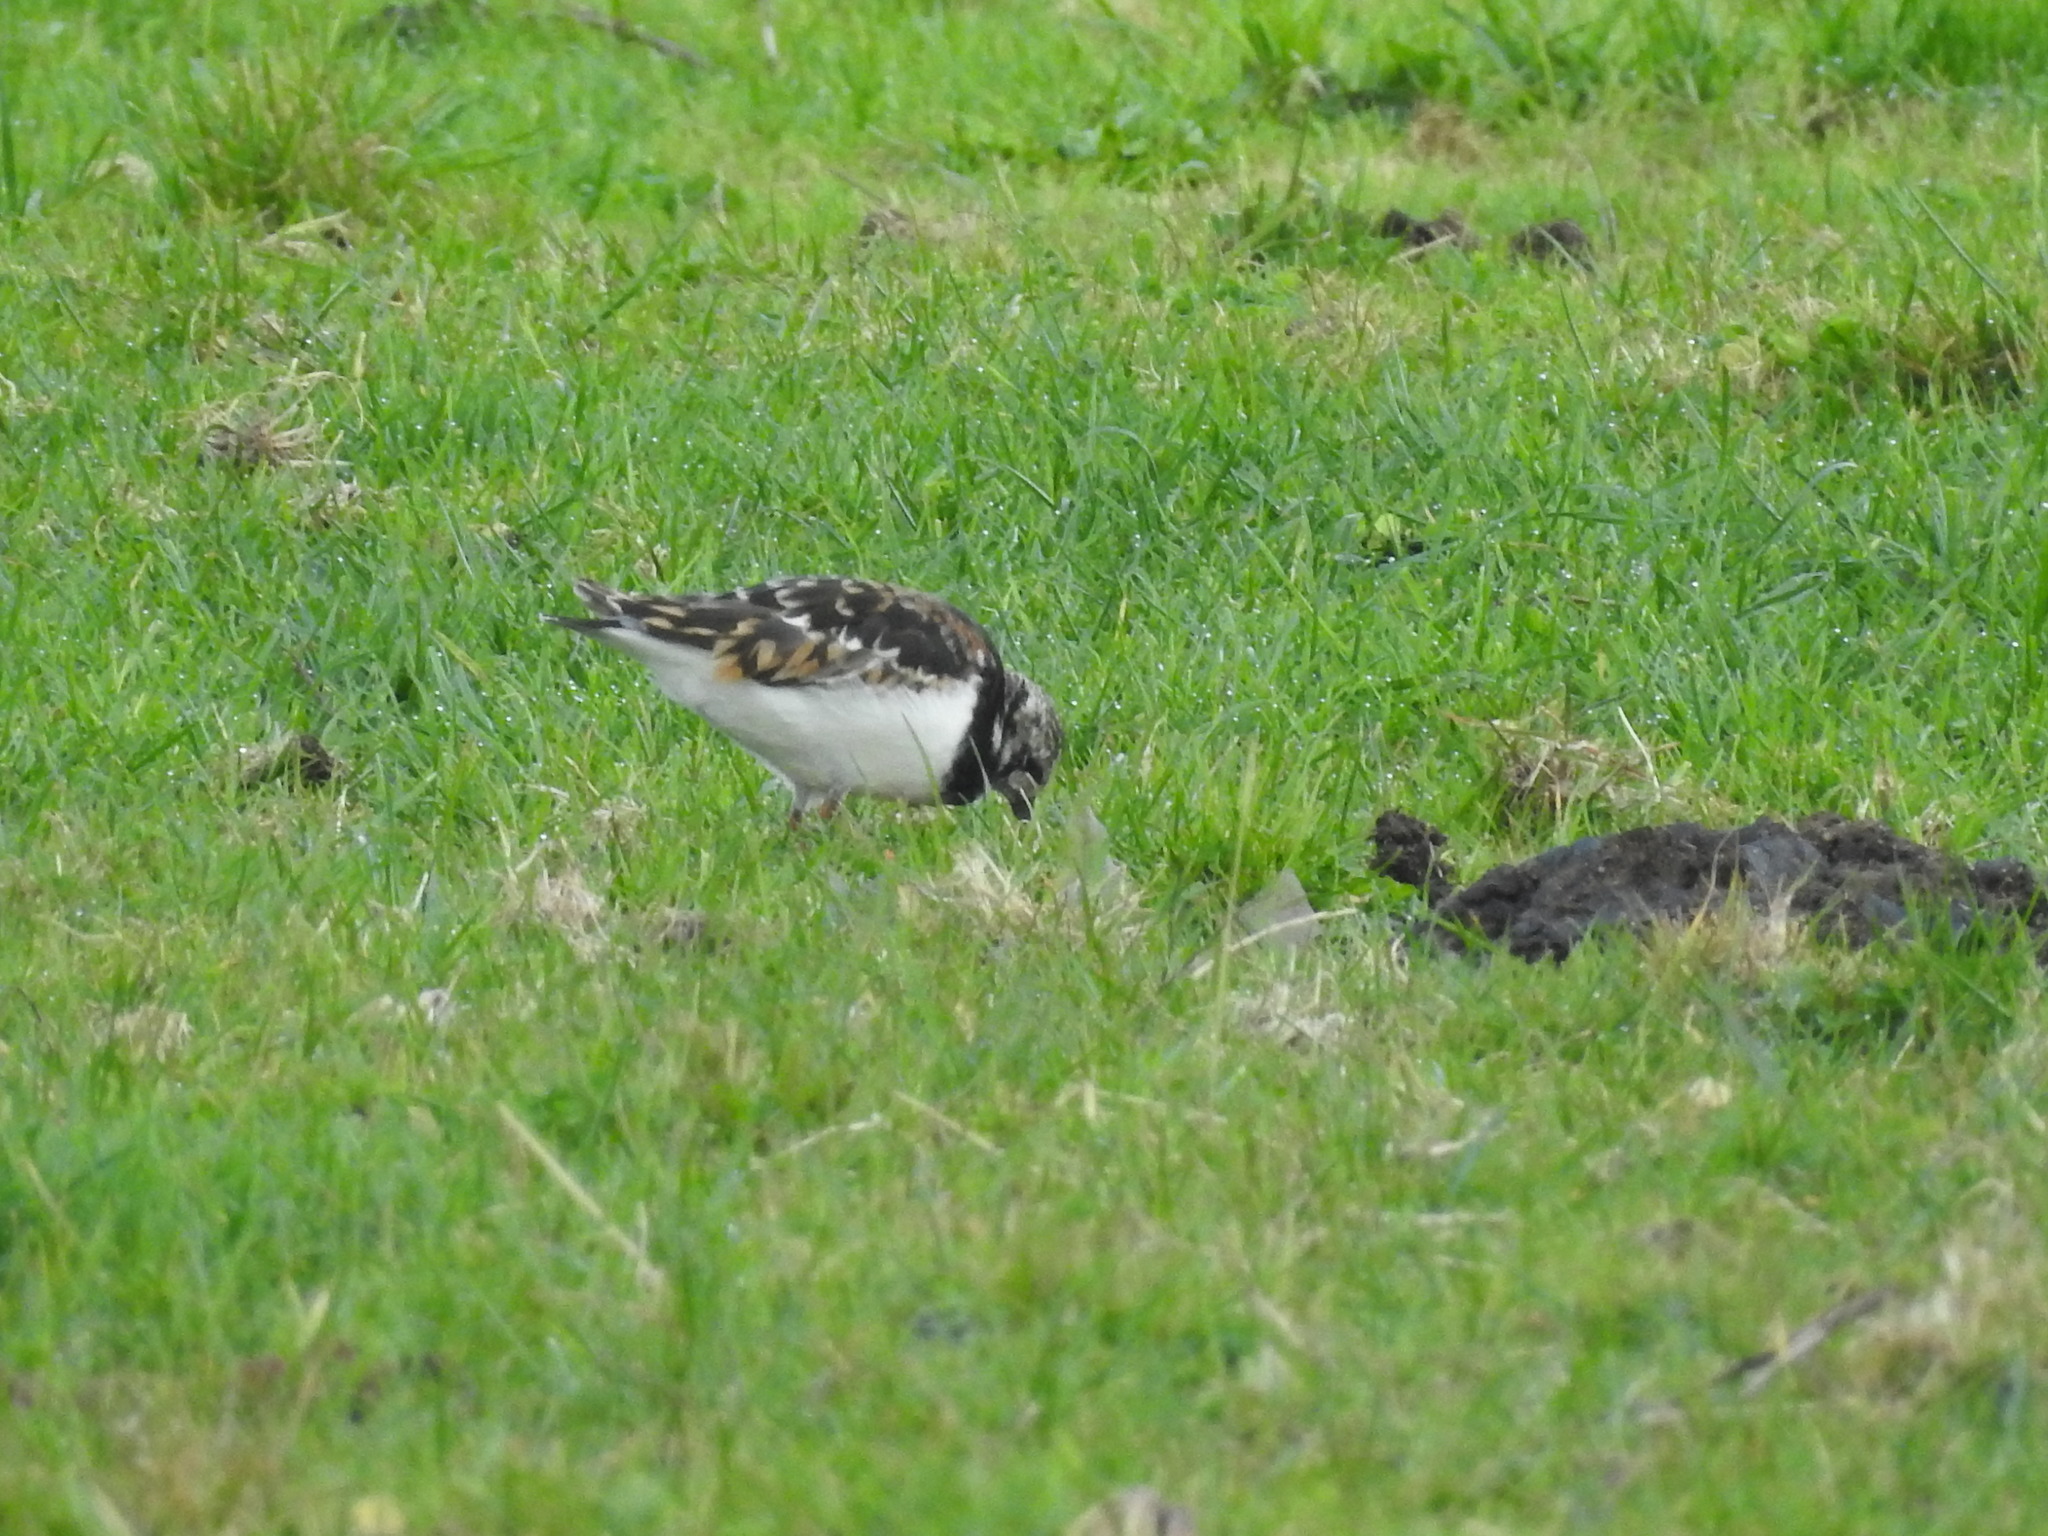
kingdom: Animalia
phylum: Chordata
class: Aves
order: Charadriiformes
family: Scolopacidae
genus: Arenaria
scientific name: Arenaria interpres
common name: Ruddy turnstone
